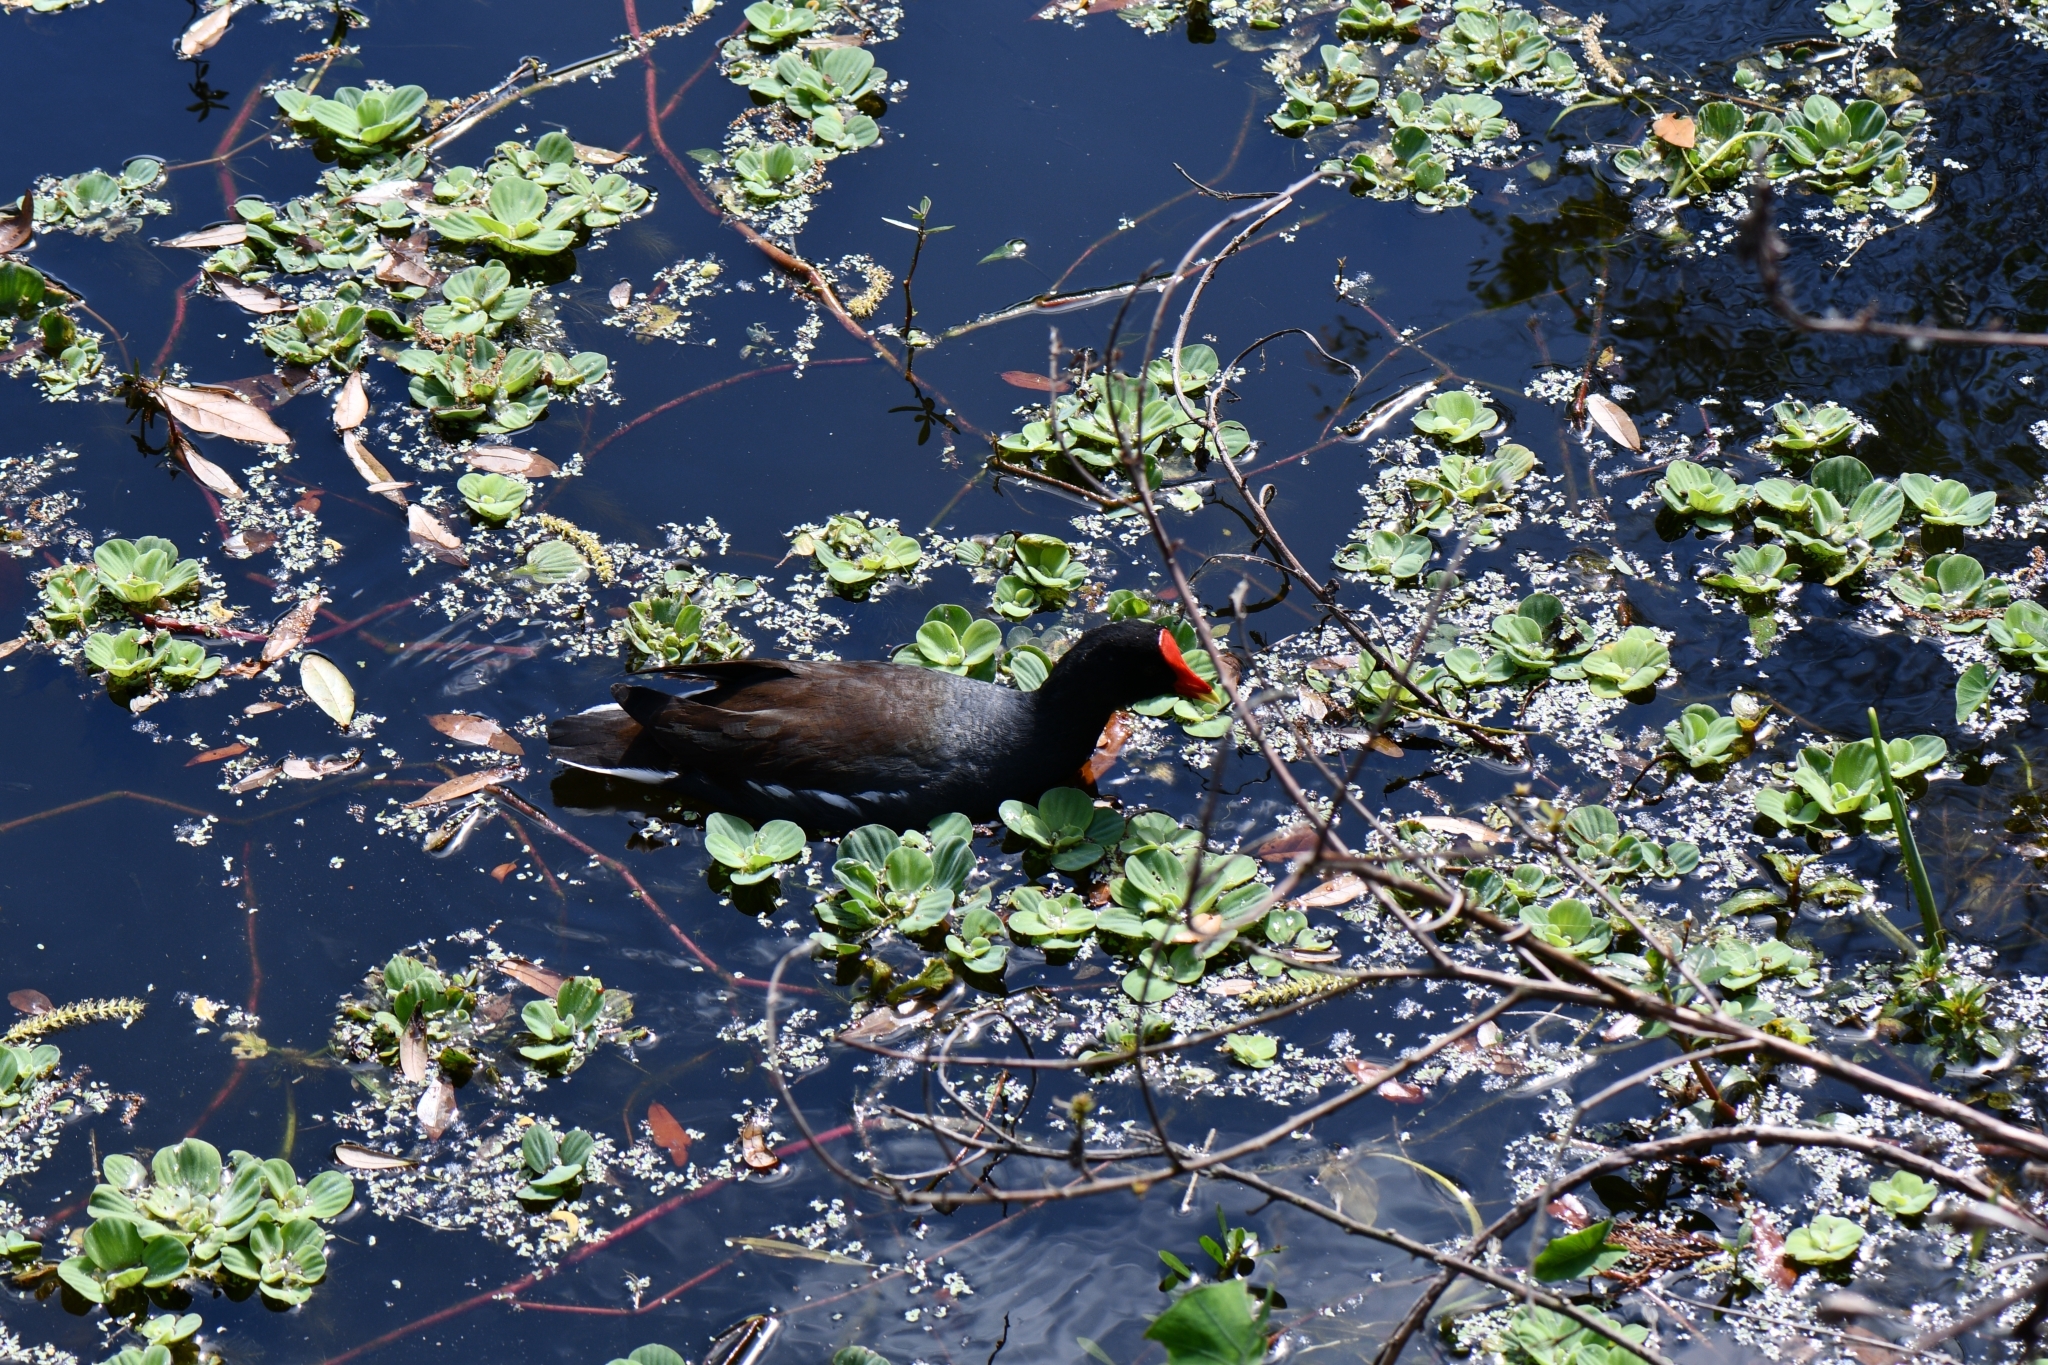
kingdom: Animalia
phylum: Chordata
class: Aves
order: Gruiformes
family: Rallidae
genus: Gallinula
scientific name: Gallinula chloropus
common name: Common moorhen
